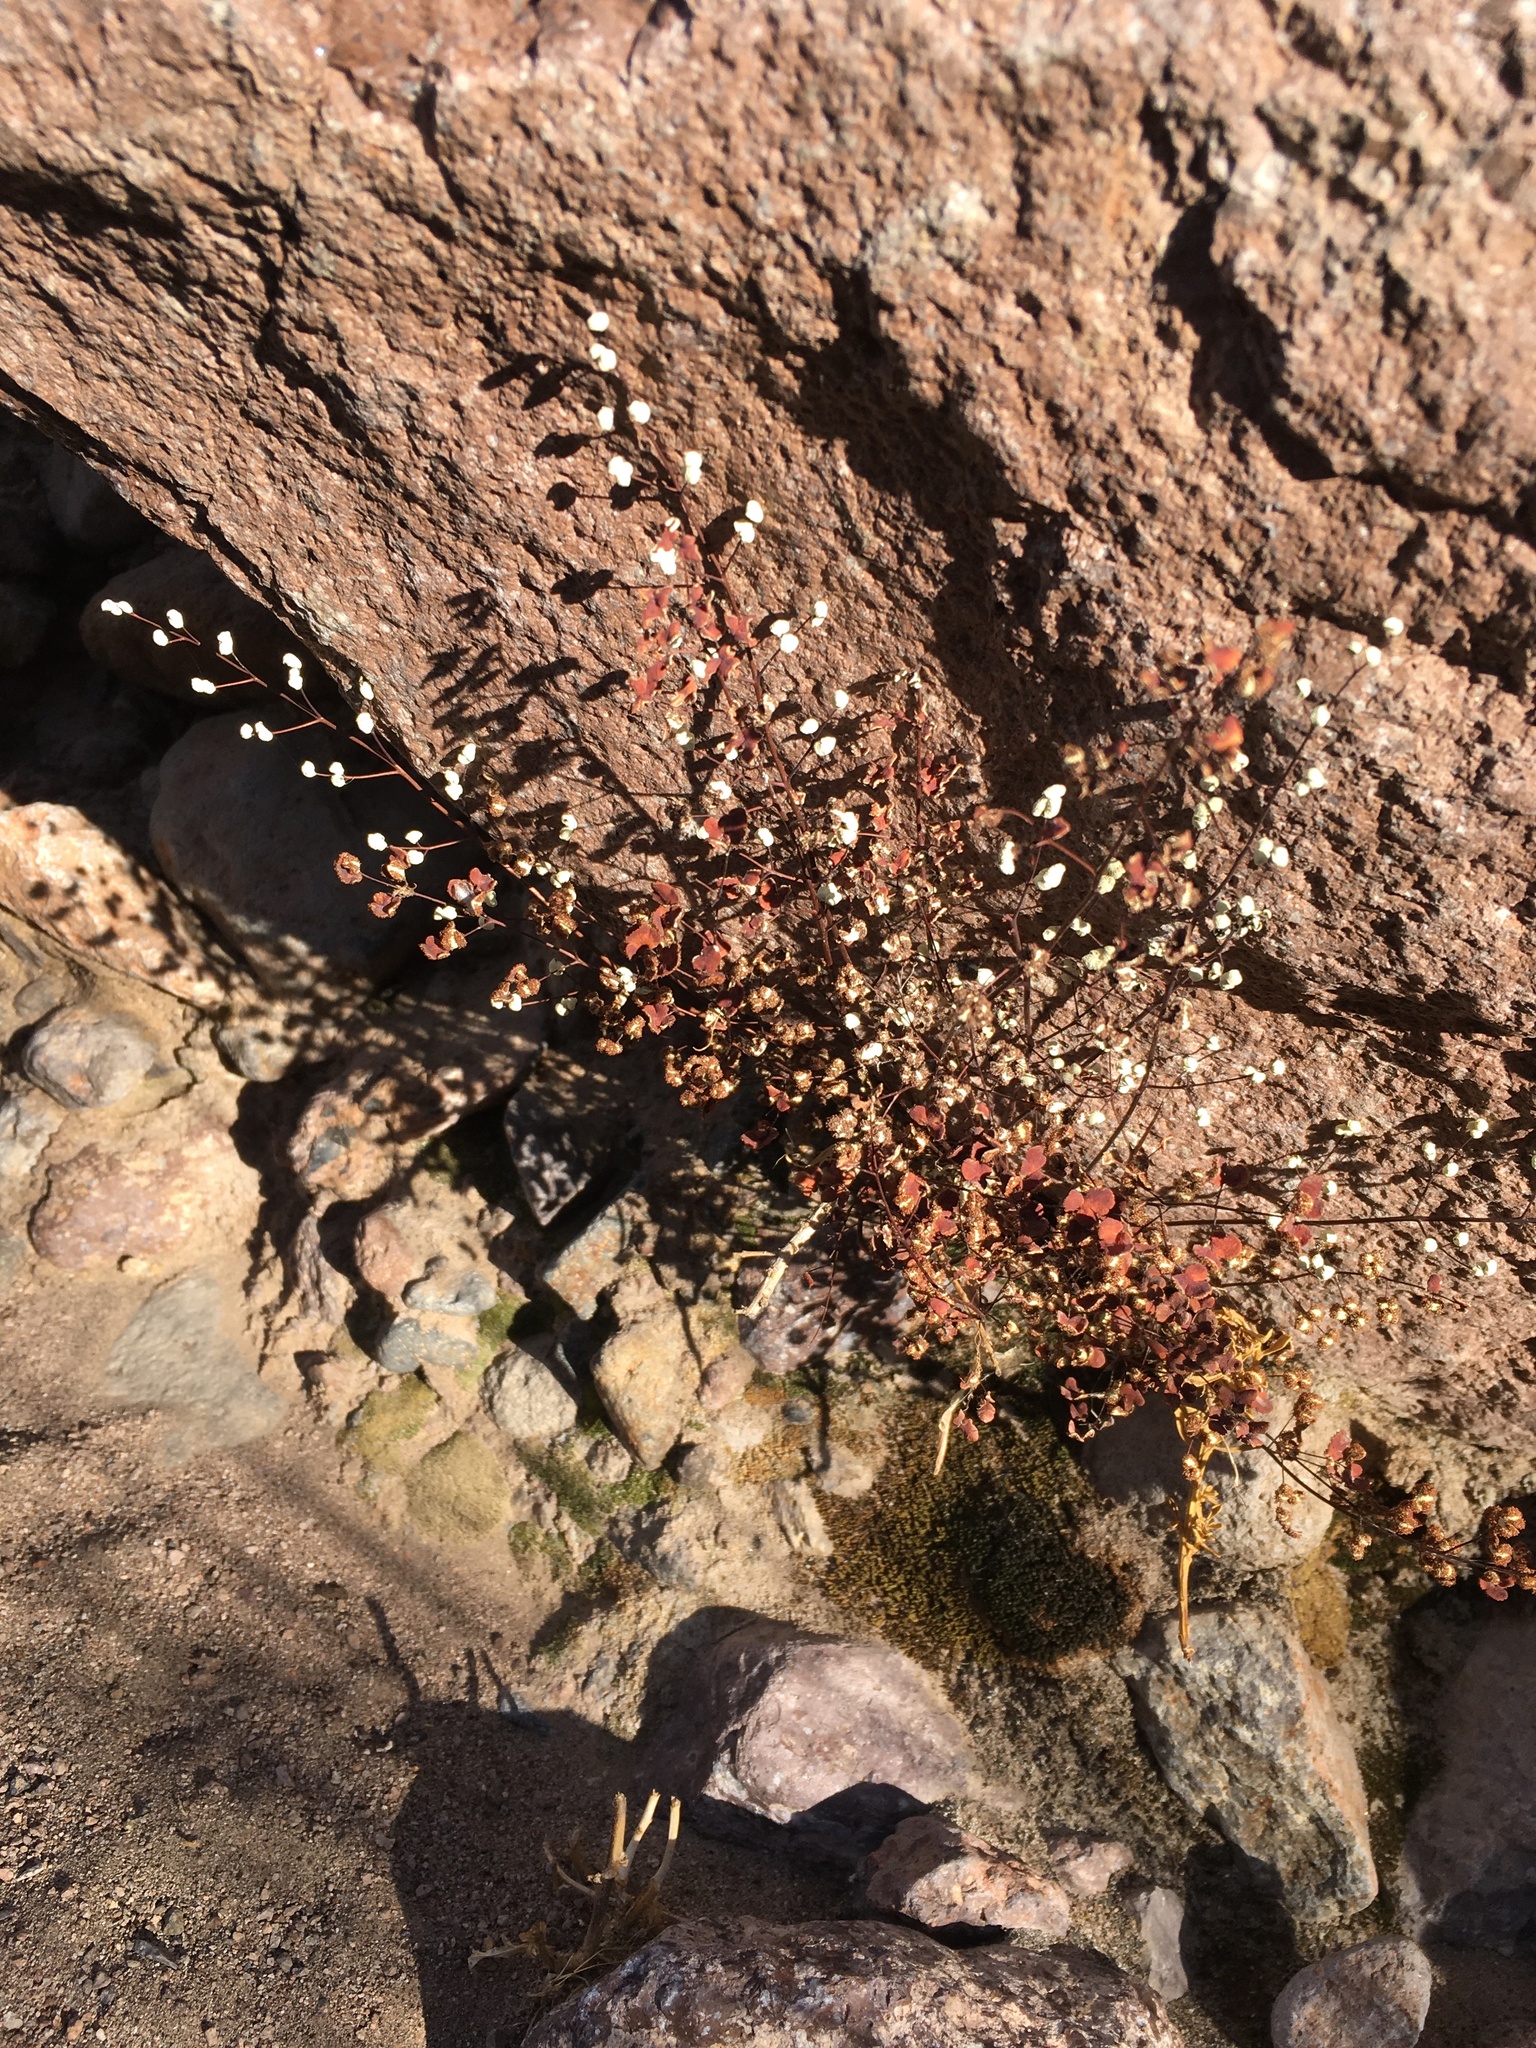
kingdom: Plantae
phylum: Tracheophyta
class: Polypodiopsida
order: Polypodiales
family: Pteridaceae
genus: Argyrochosma
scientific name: Argyrochosma nivea
